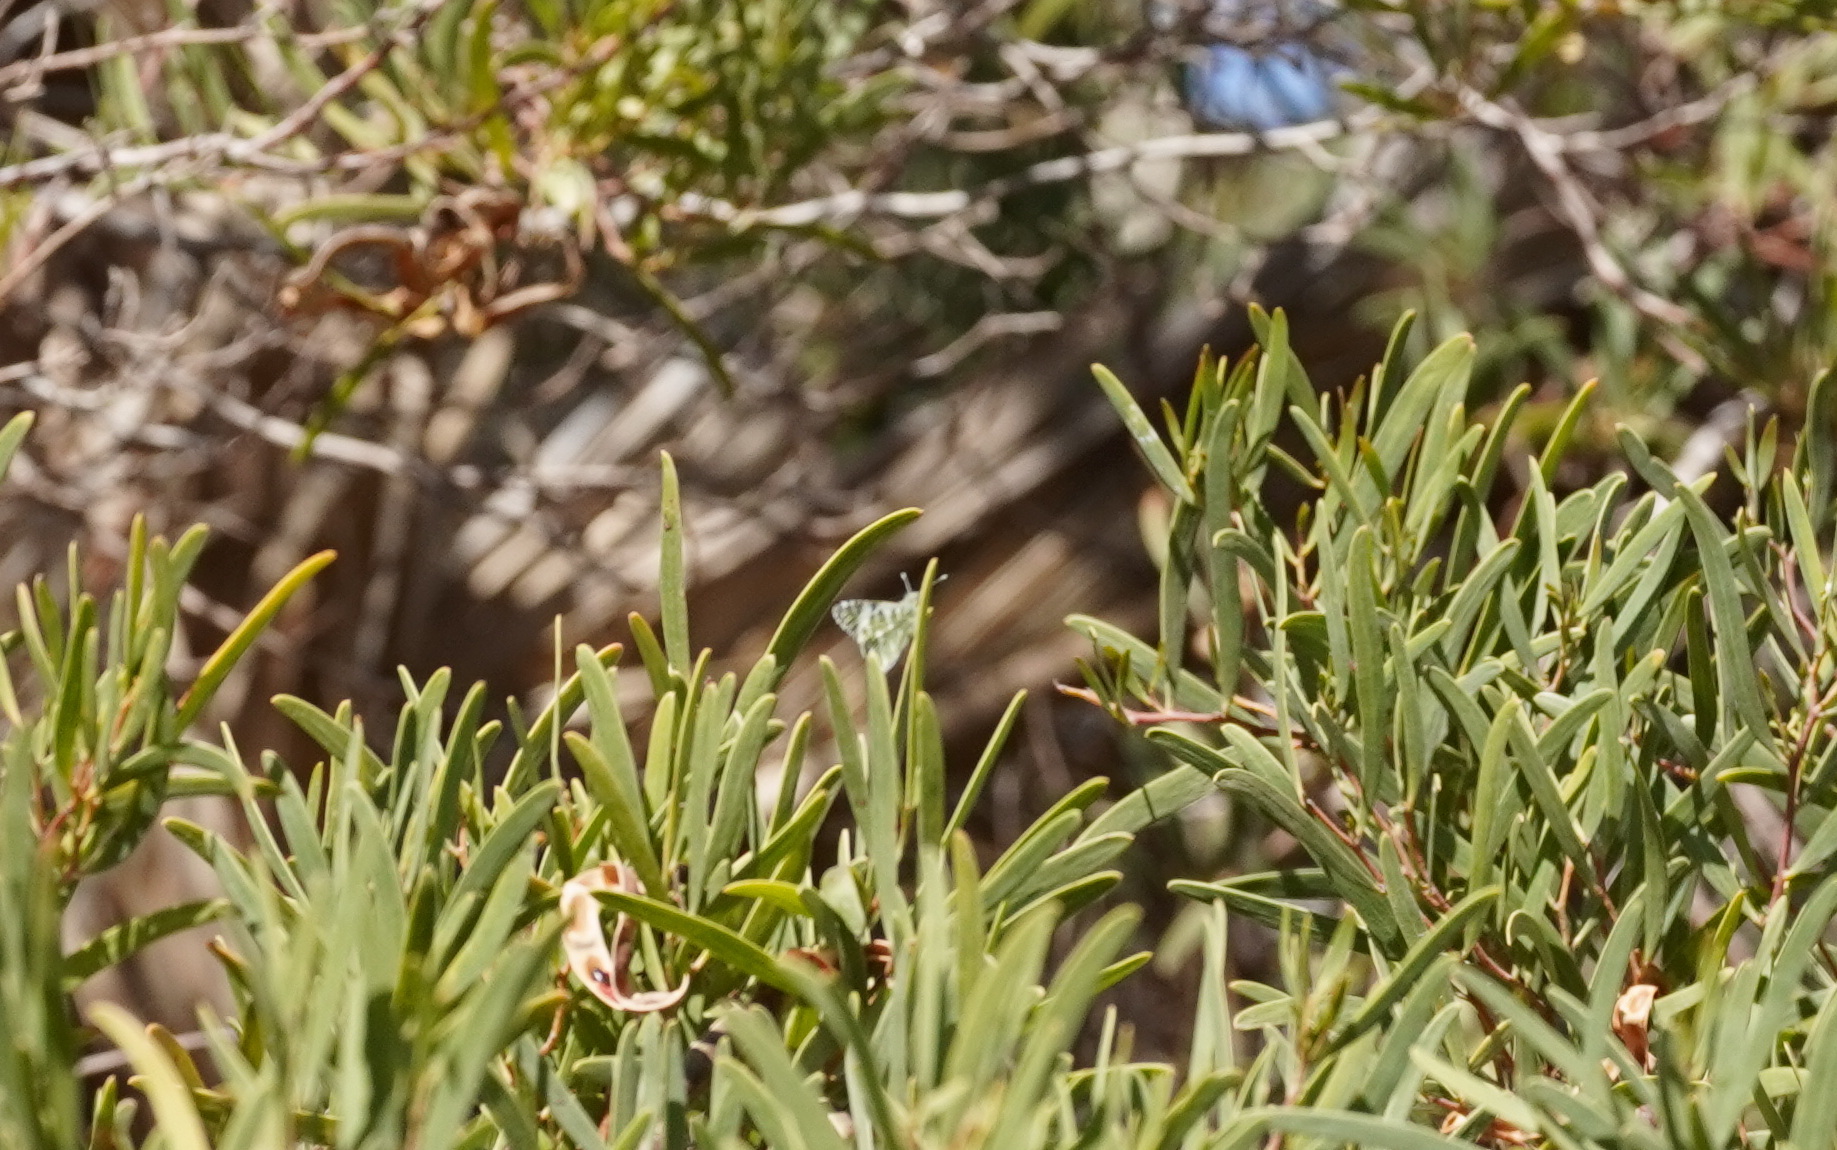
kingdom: Animalia
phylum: Arthropoda
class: Insecta
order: Lepidoptera
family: Pieridae
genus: Euchloe
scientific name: Euchloe hesperidum
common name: Canary green-striped white
